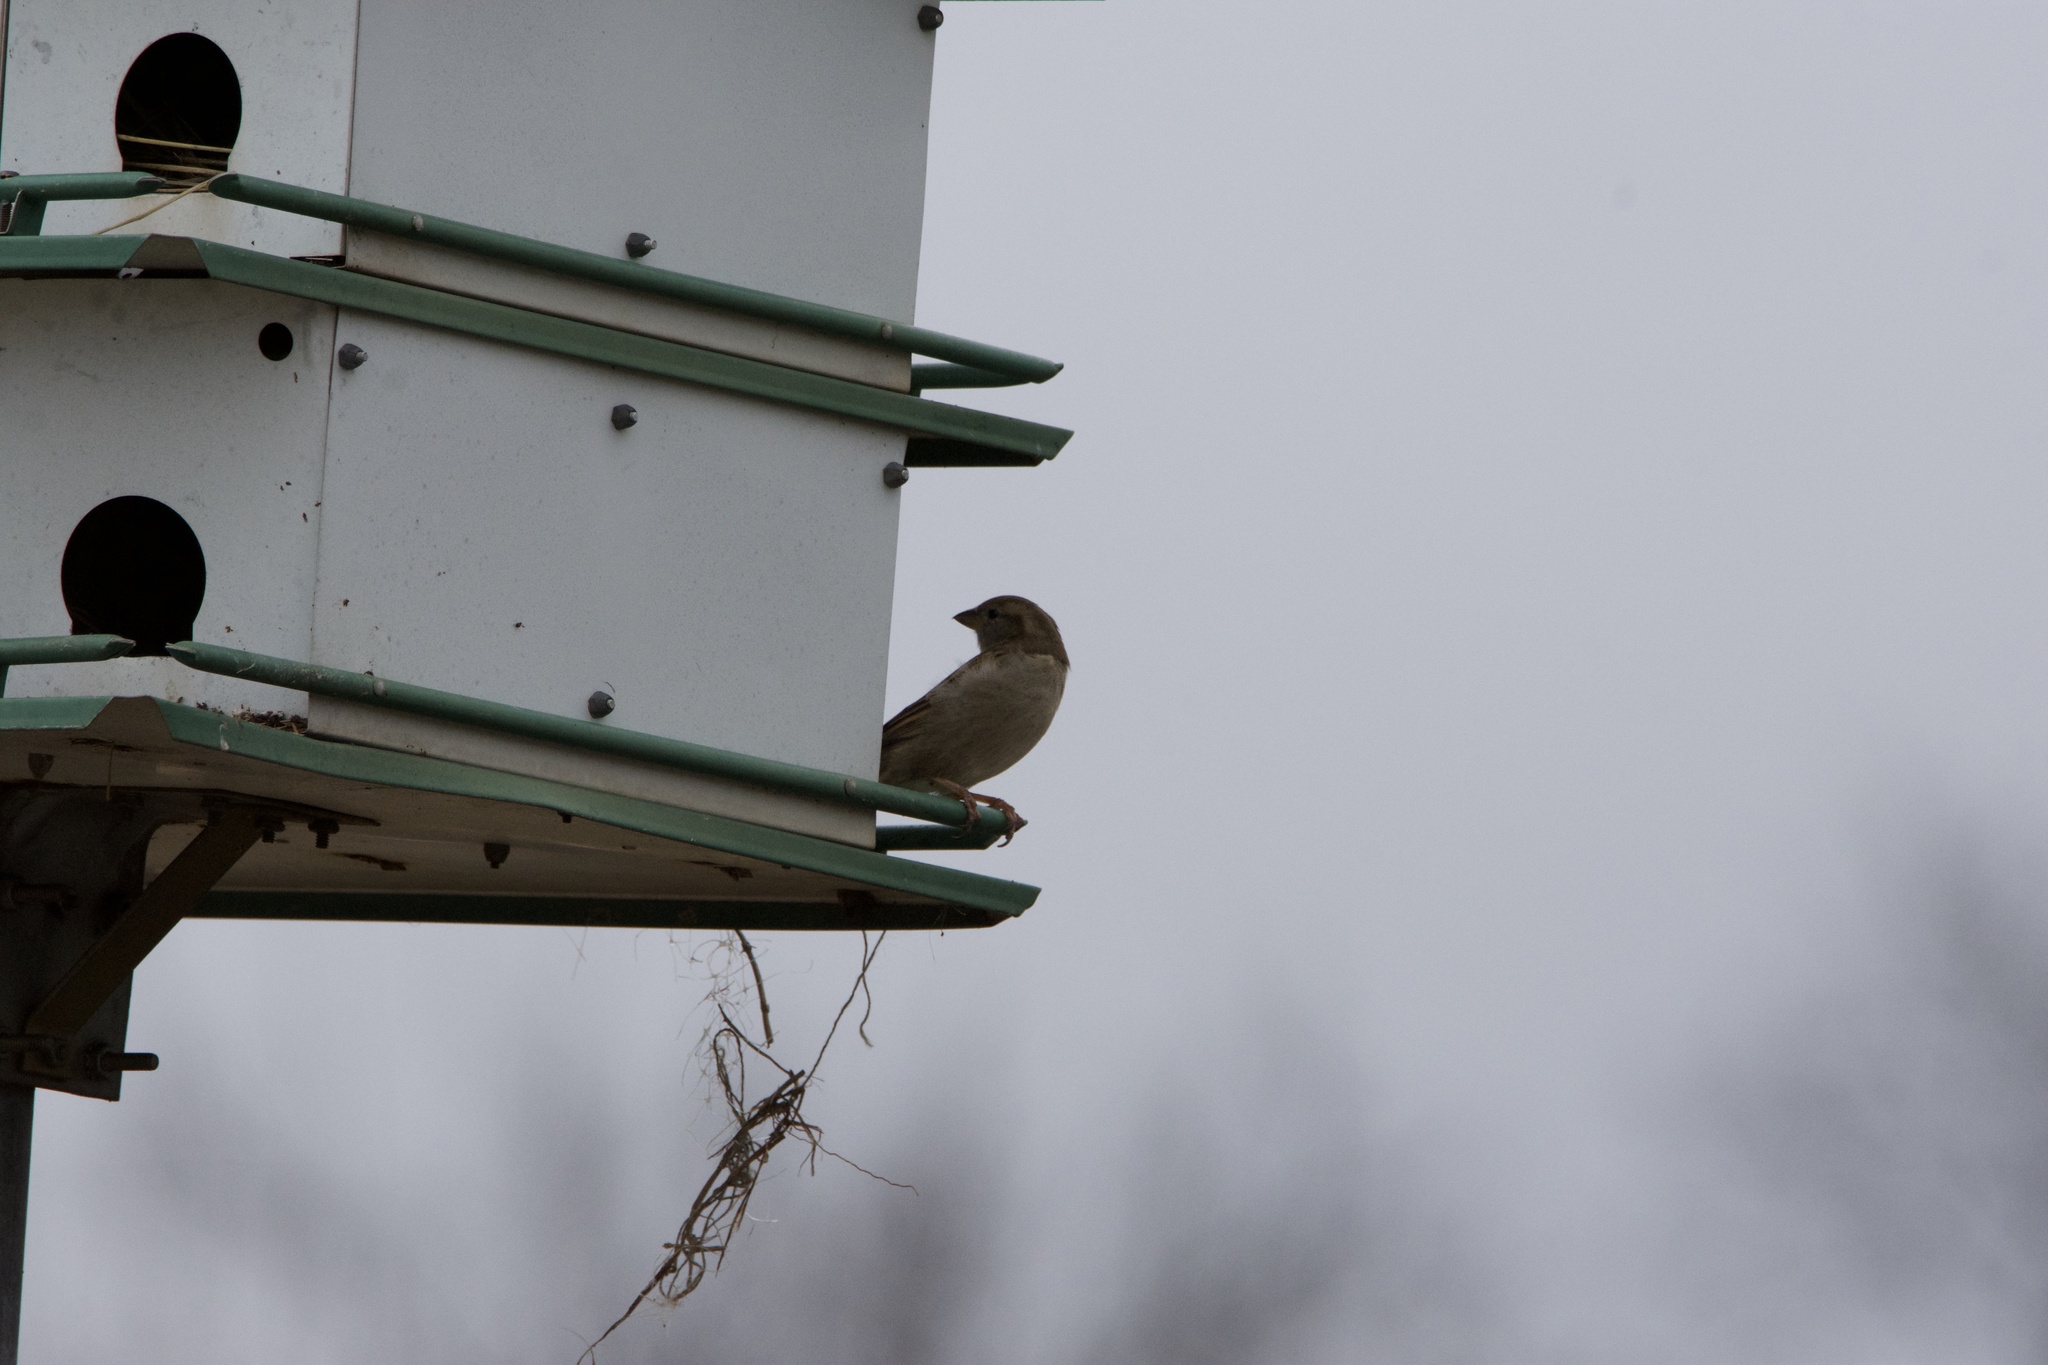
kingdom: Animalia
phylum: Chordata
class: Aves
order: Passeriformes
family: Passeridae
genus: Passer
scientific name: Passer domesticus
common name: House sparrow
